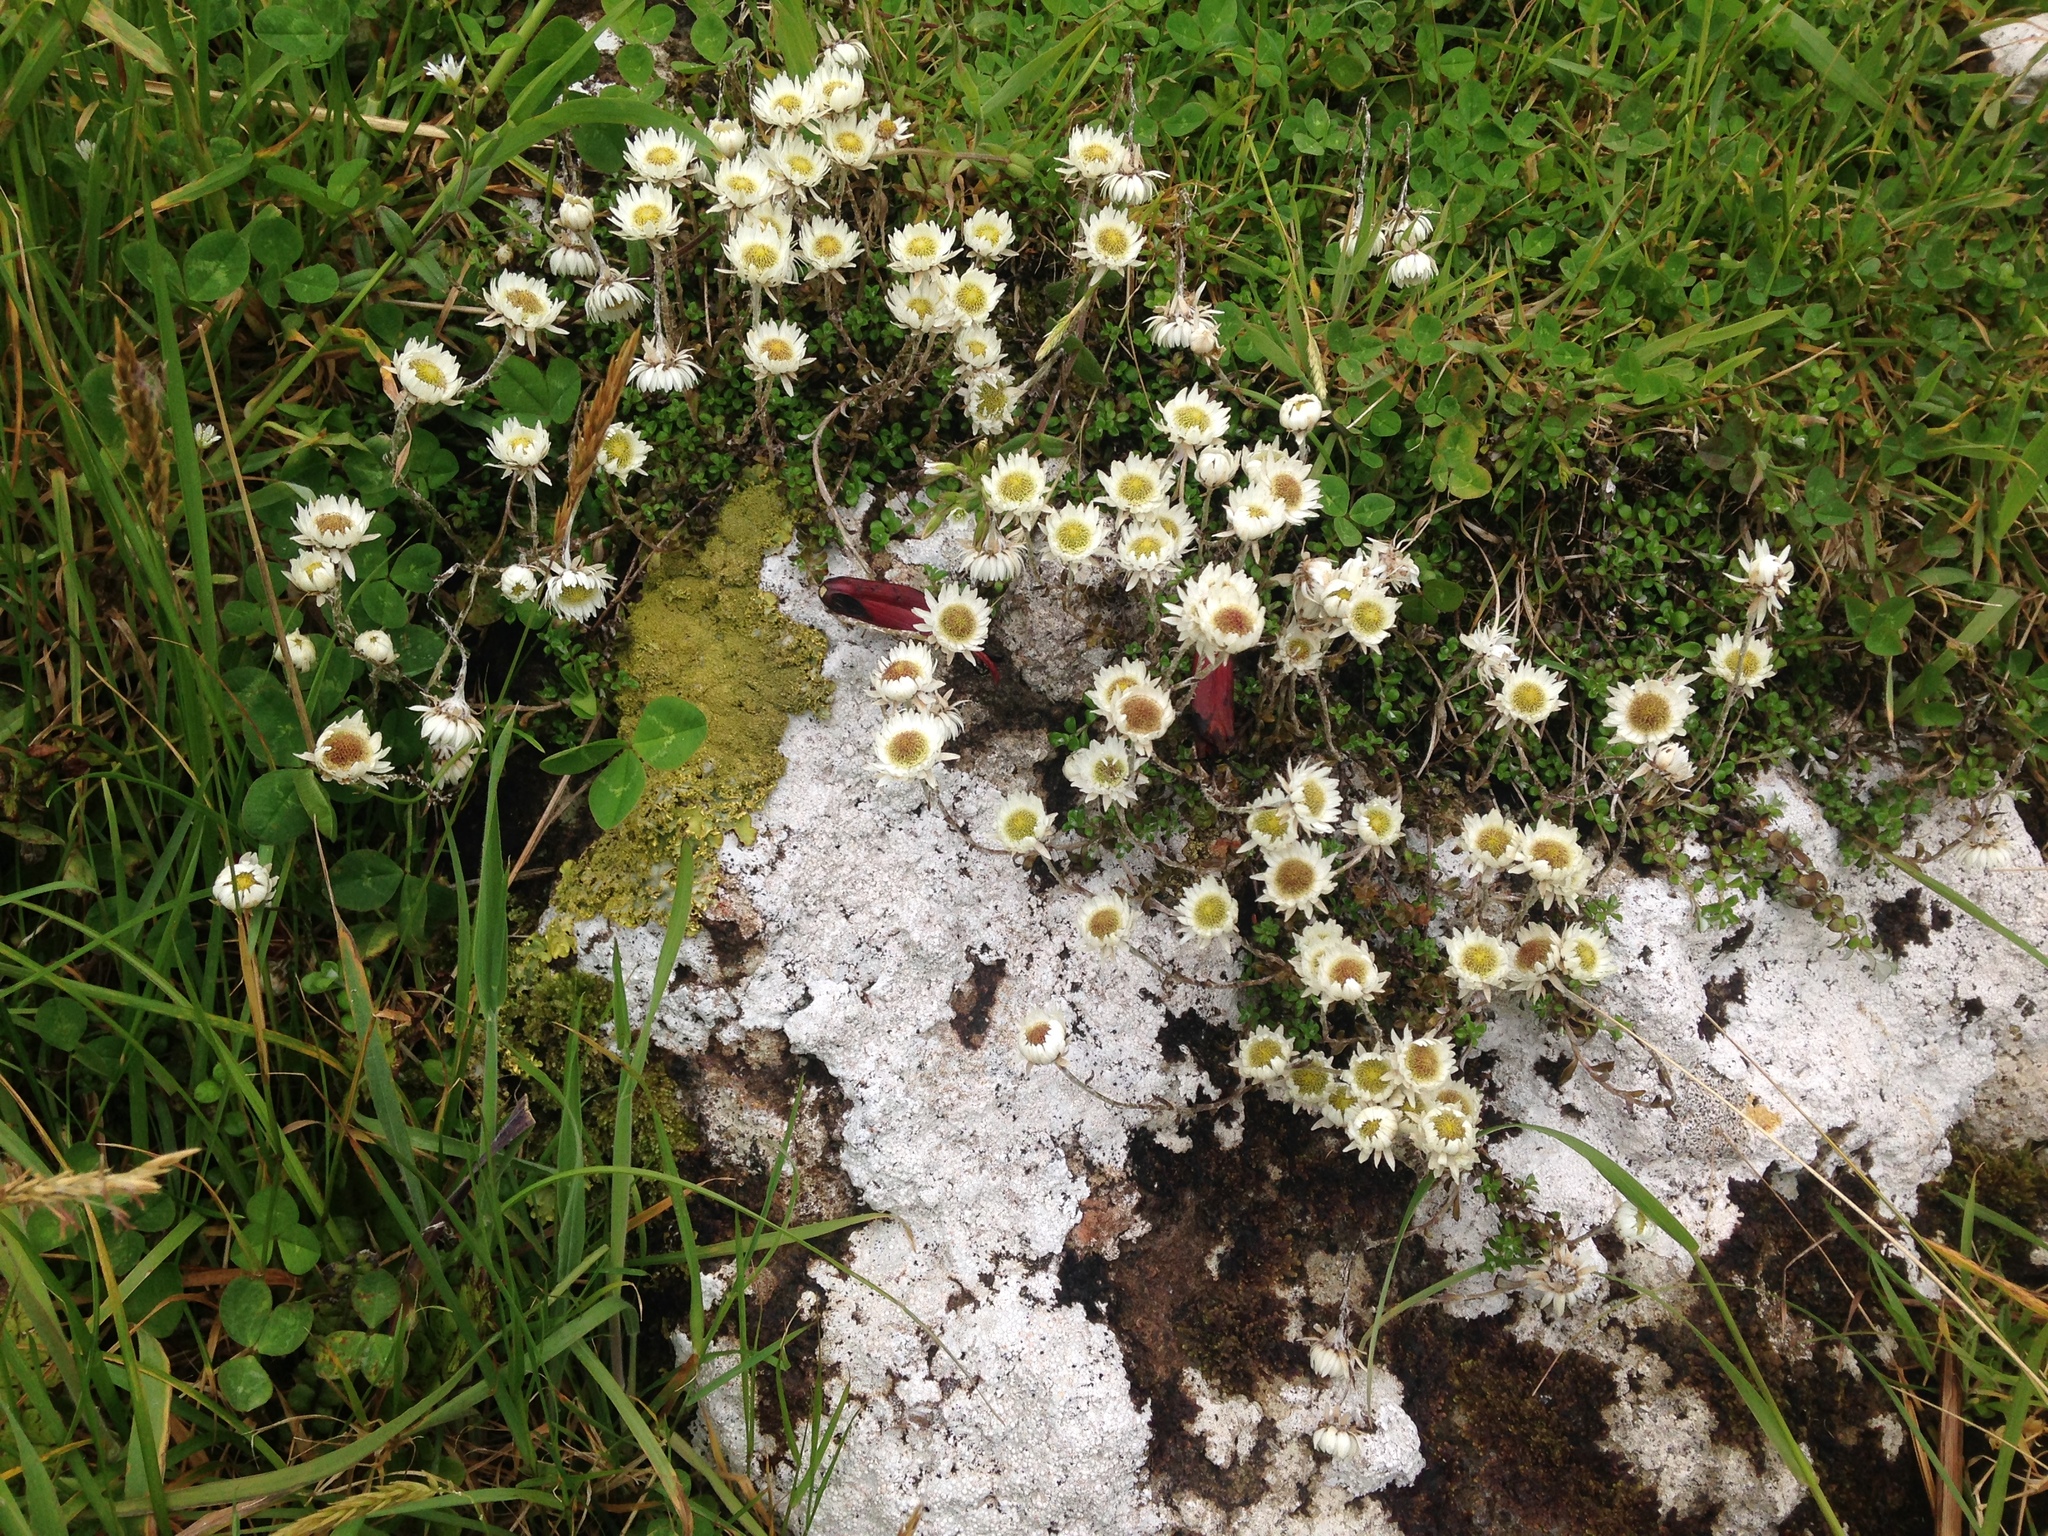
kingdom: Plantae
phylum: Tracheophyta
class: Magnoliopsida
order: Asterales
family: Asteraceae
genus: Anaphalioides
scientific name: Anaphalioides bellidioides
